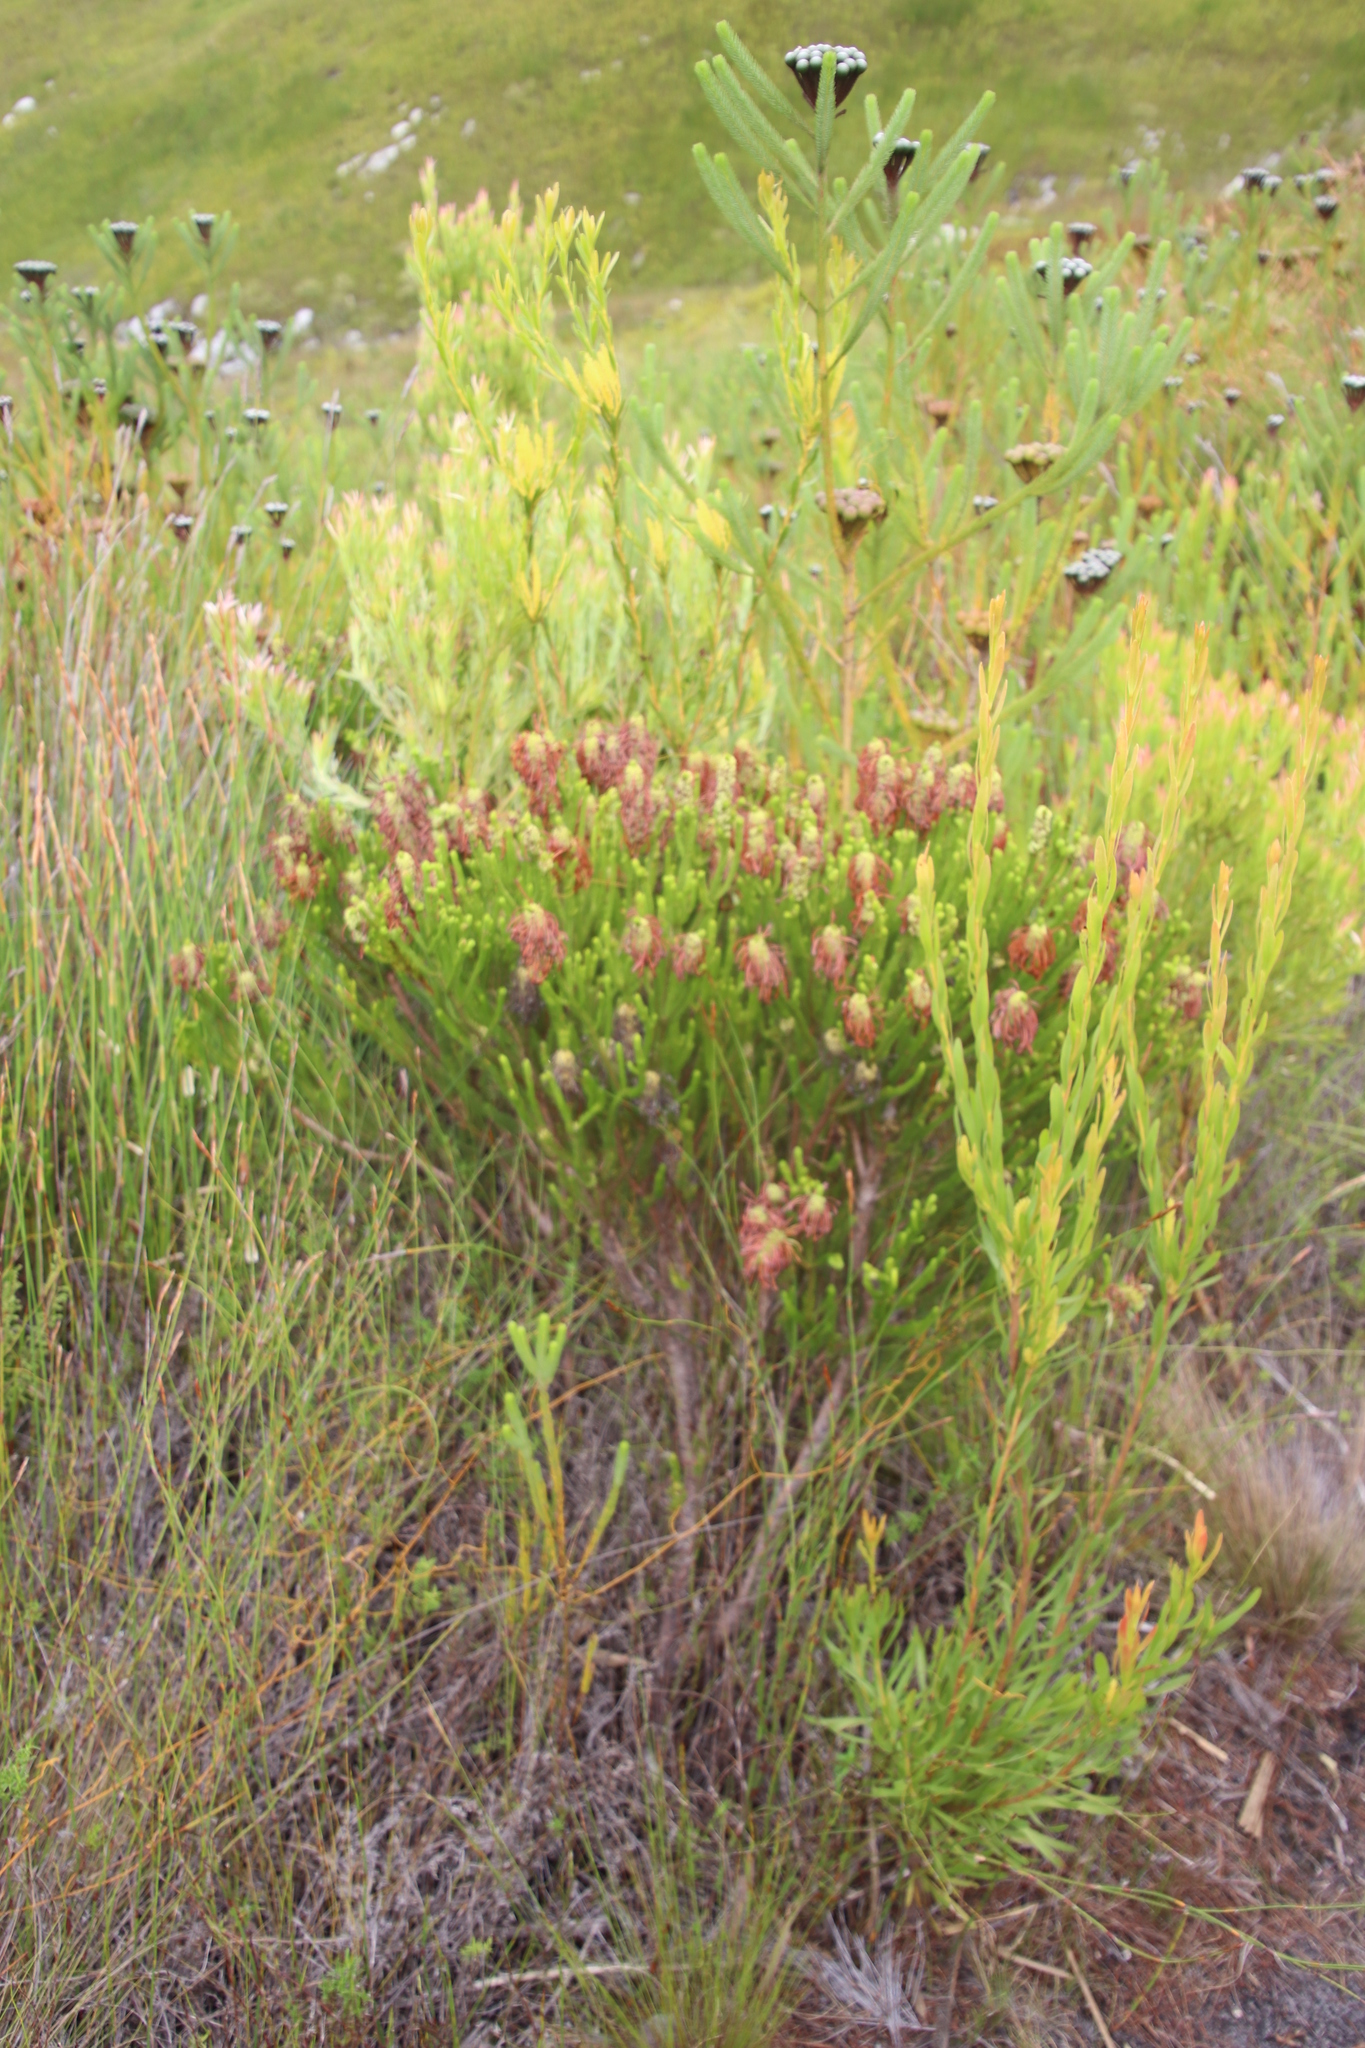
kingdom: Plantae
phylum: Tracheophyta
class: Magnoliopsida
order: Ericales
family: Ericaceae
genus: Erica
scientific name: Erica sessiliflora
